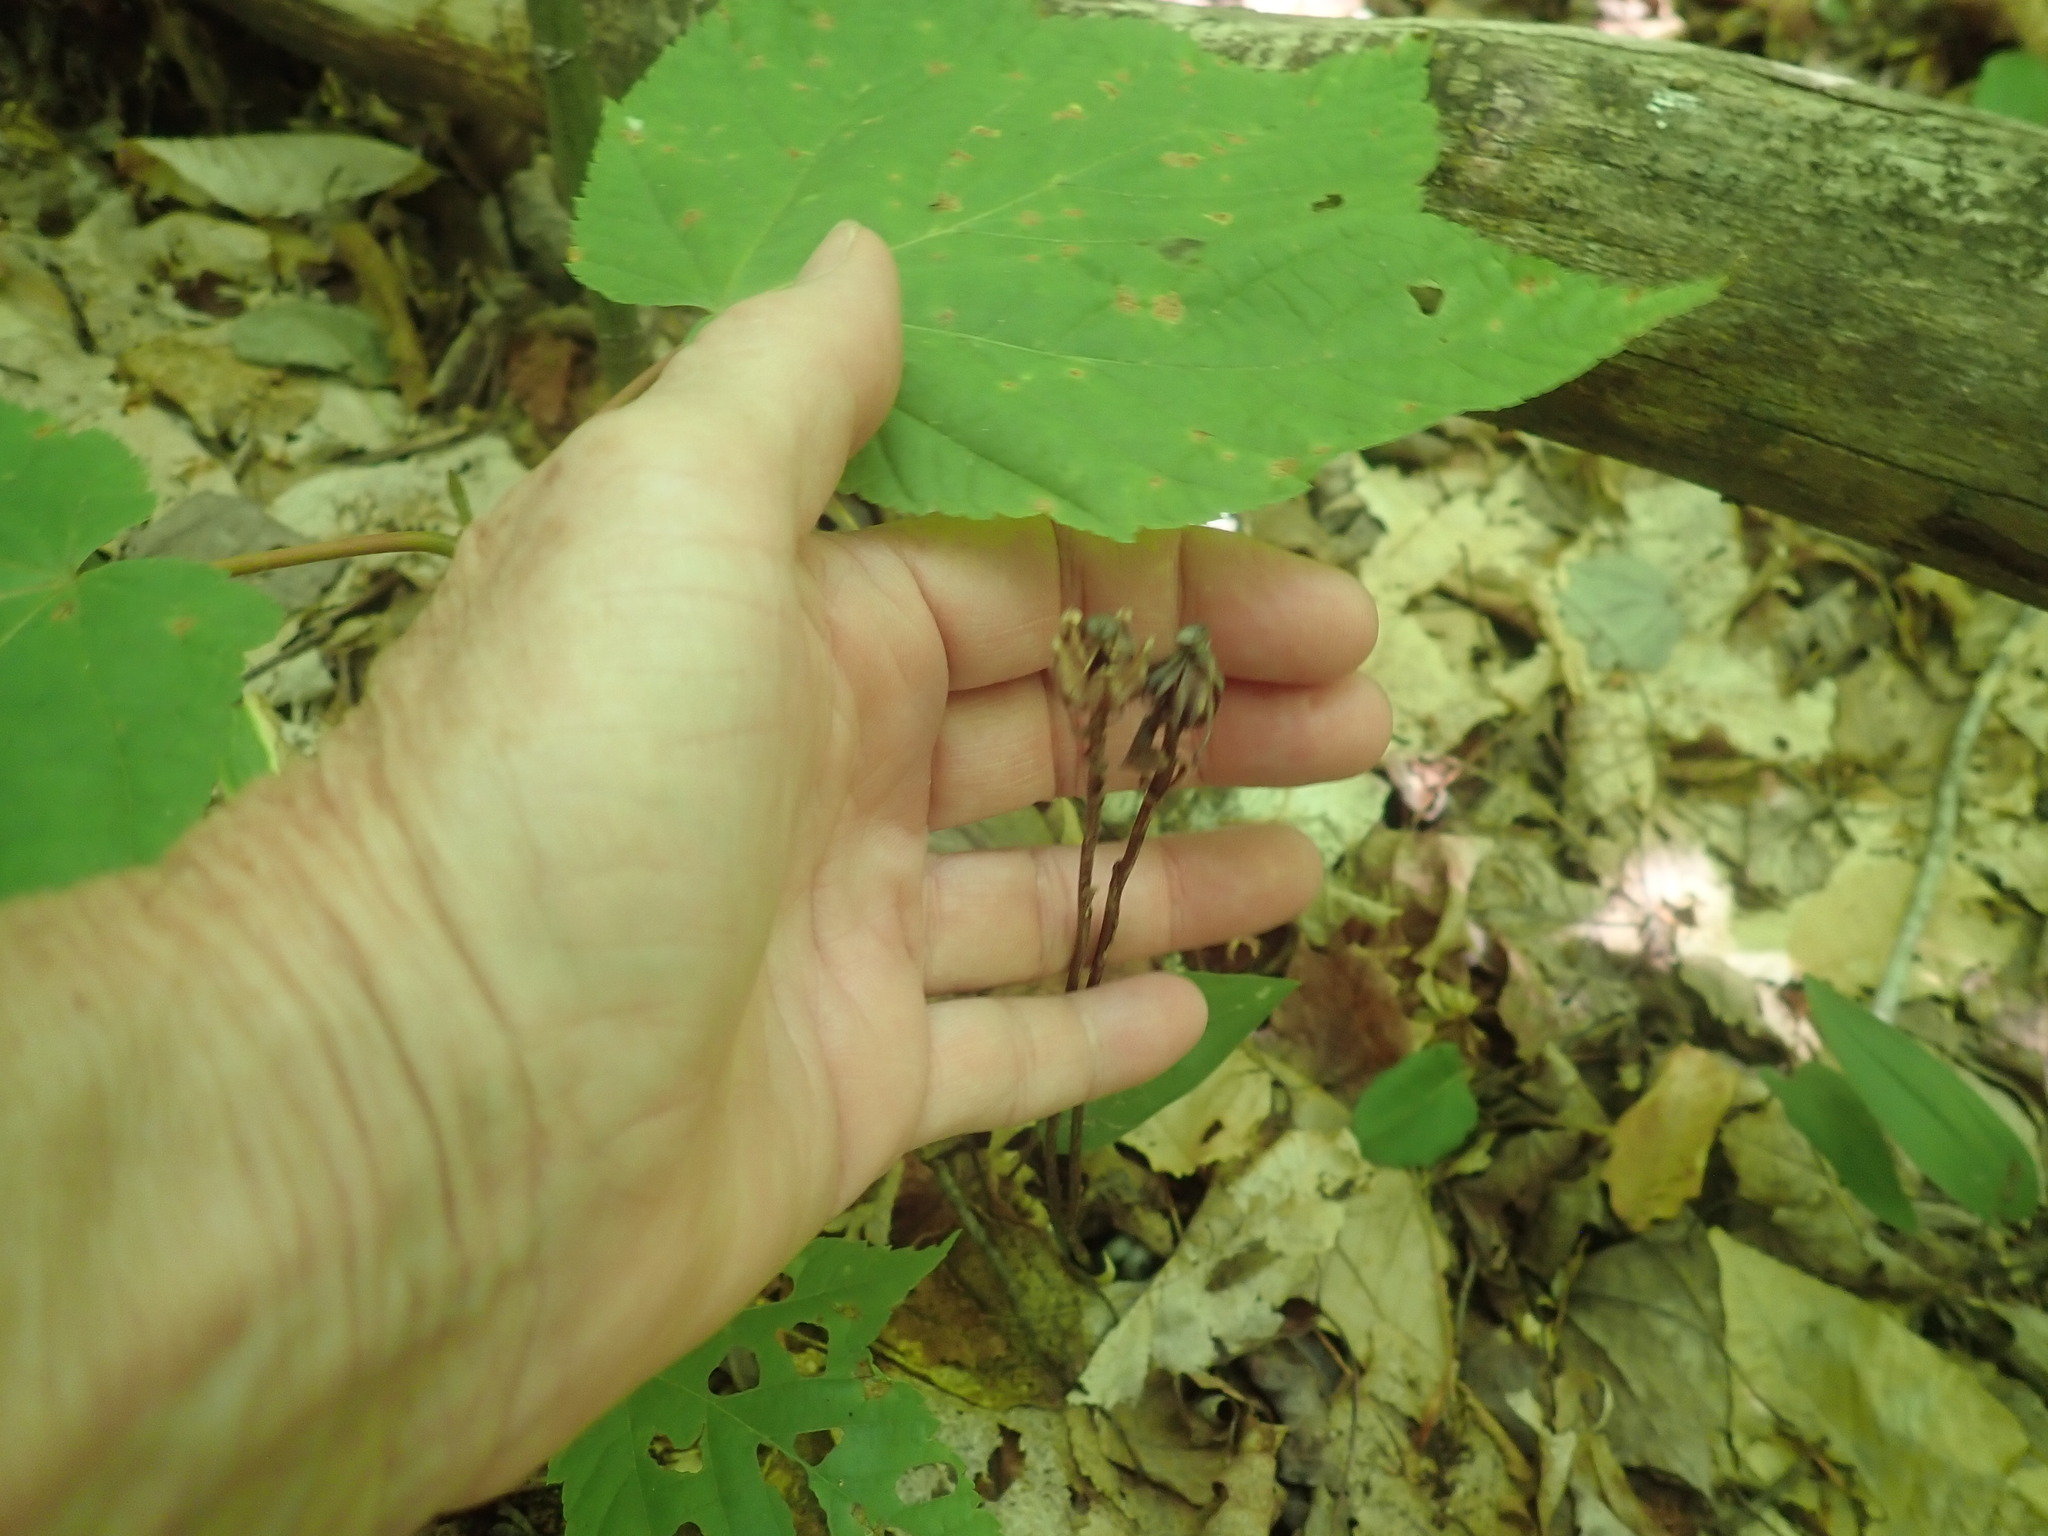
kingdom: Plantae
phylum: Tracheophyta
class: Magnoliopsida
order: Ericales
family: Ericaceae
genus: Monotropa
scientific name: Monotropa uniflora
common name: Convulsion root
